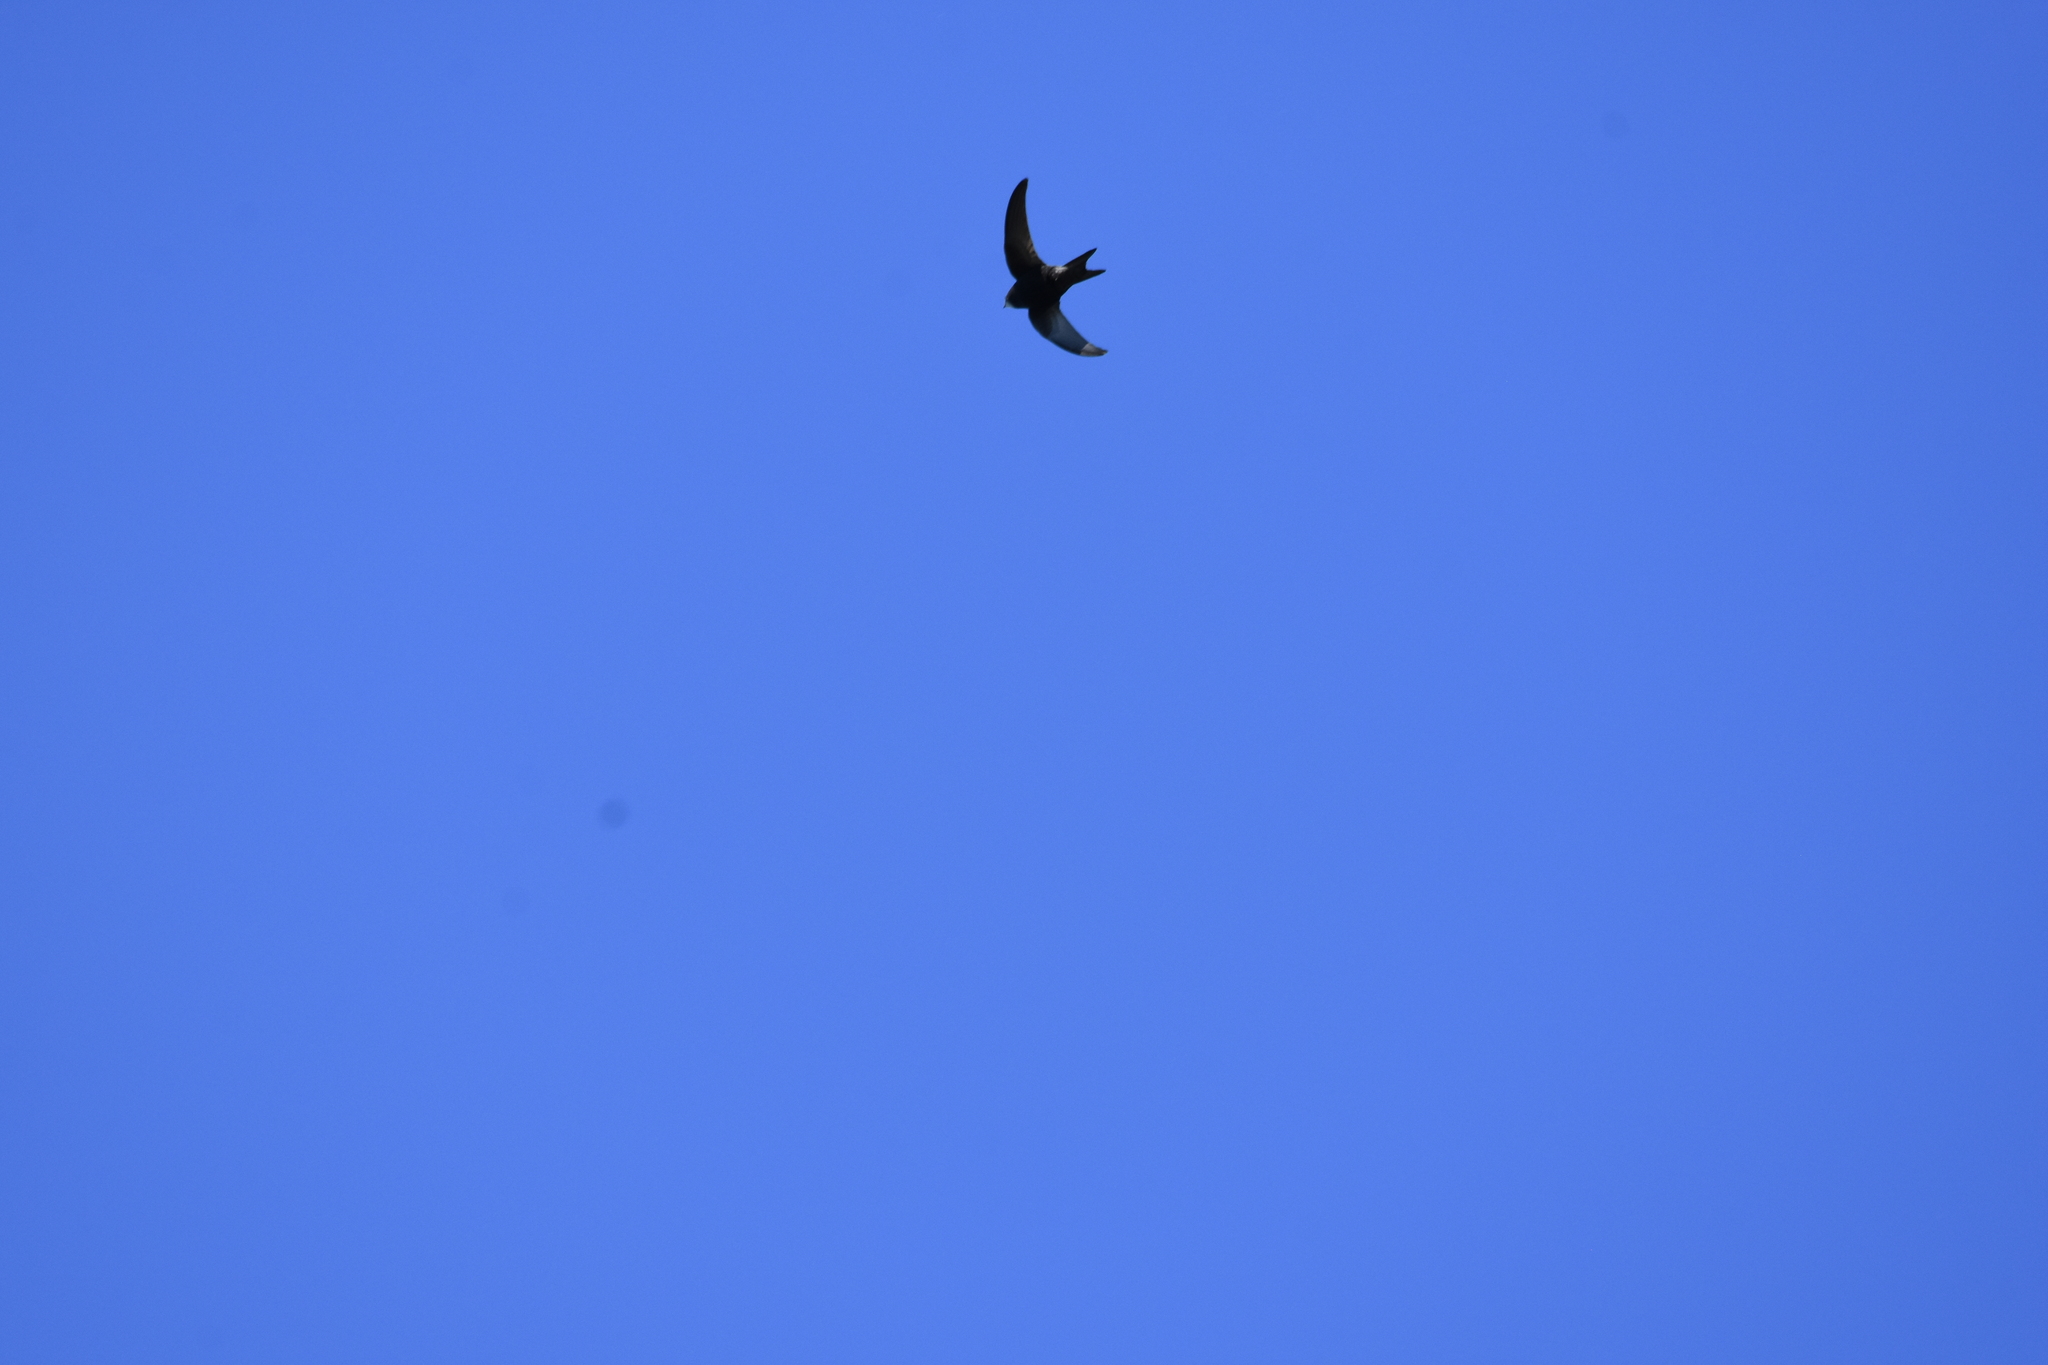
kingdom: Animalia
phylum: Chordata
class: Aves
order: Apodiformes
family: Apodidae
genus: Apus
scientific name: Apus apus
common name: Common swift
